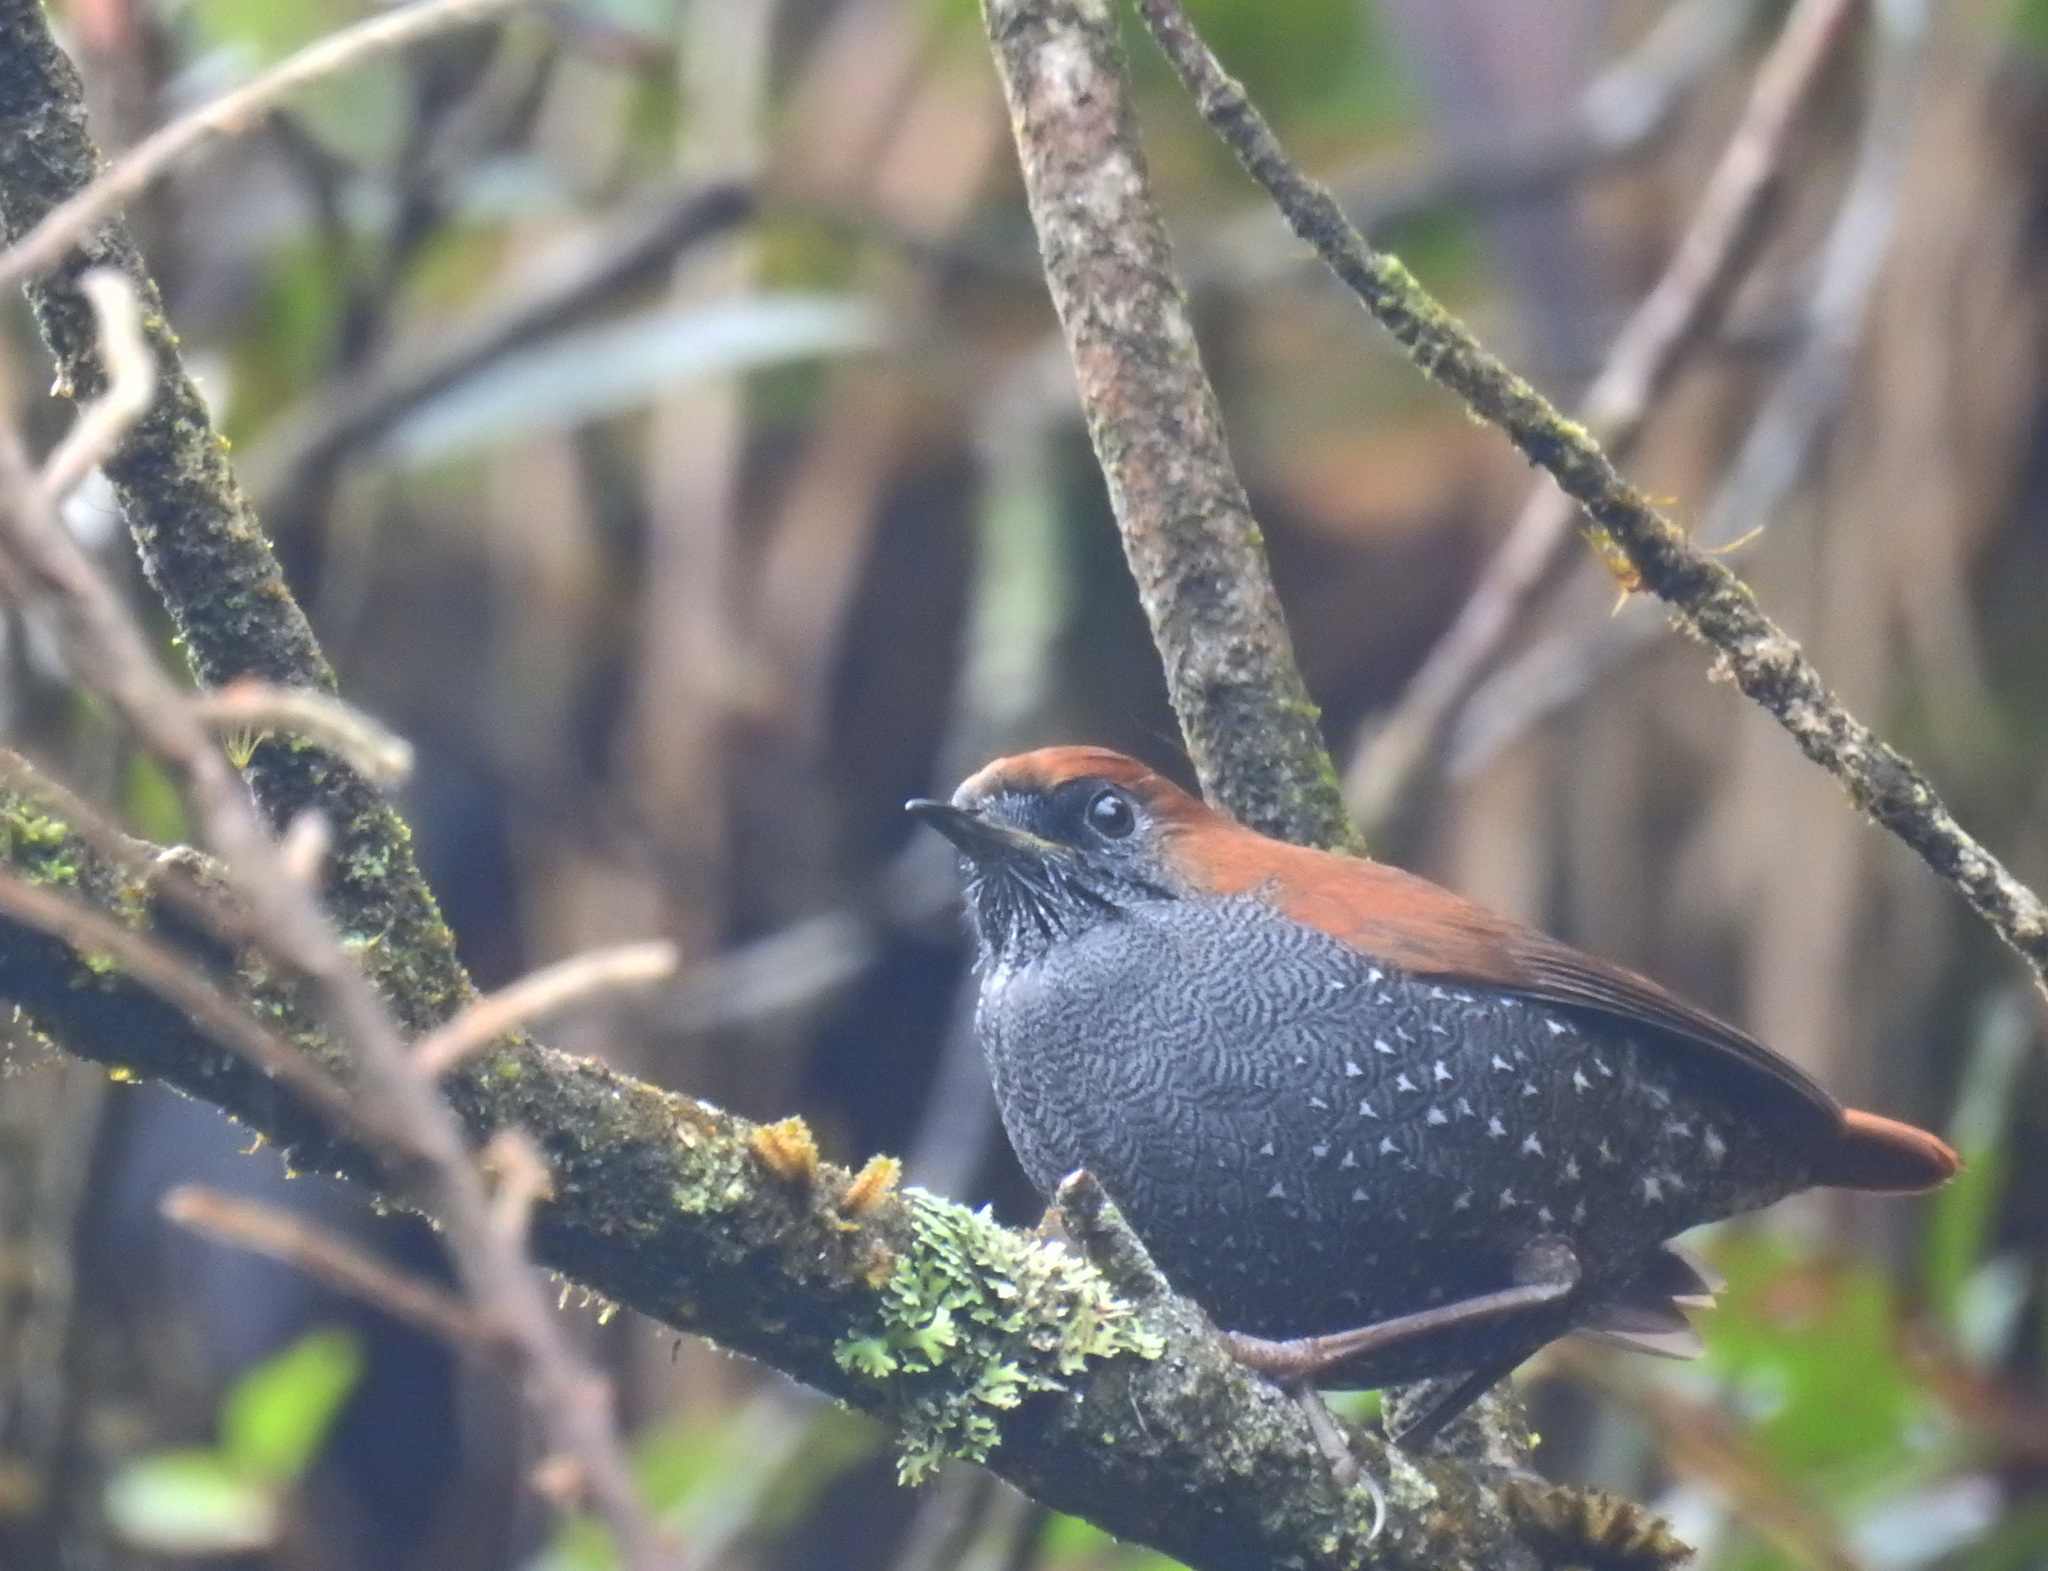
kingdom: Animalia
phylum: Chordata
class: Aves
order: Passeriformes
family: Muscicapidae
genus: Heteroxenicus
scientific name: Heteroxenicus stellatus
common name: Gould's shortwing
